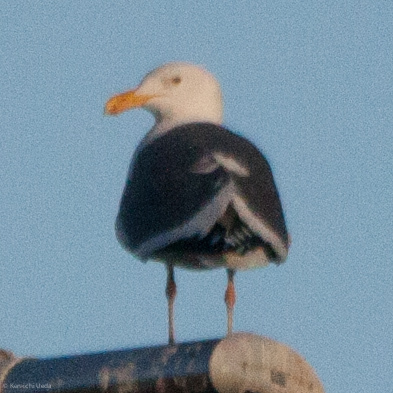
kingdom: Animalia
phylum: Chordata
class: Aves
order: Charadriiformes
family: Laridae
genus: Larus
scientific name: Larus occidentalis
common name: Western gull
